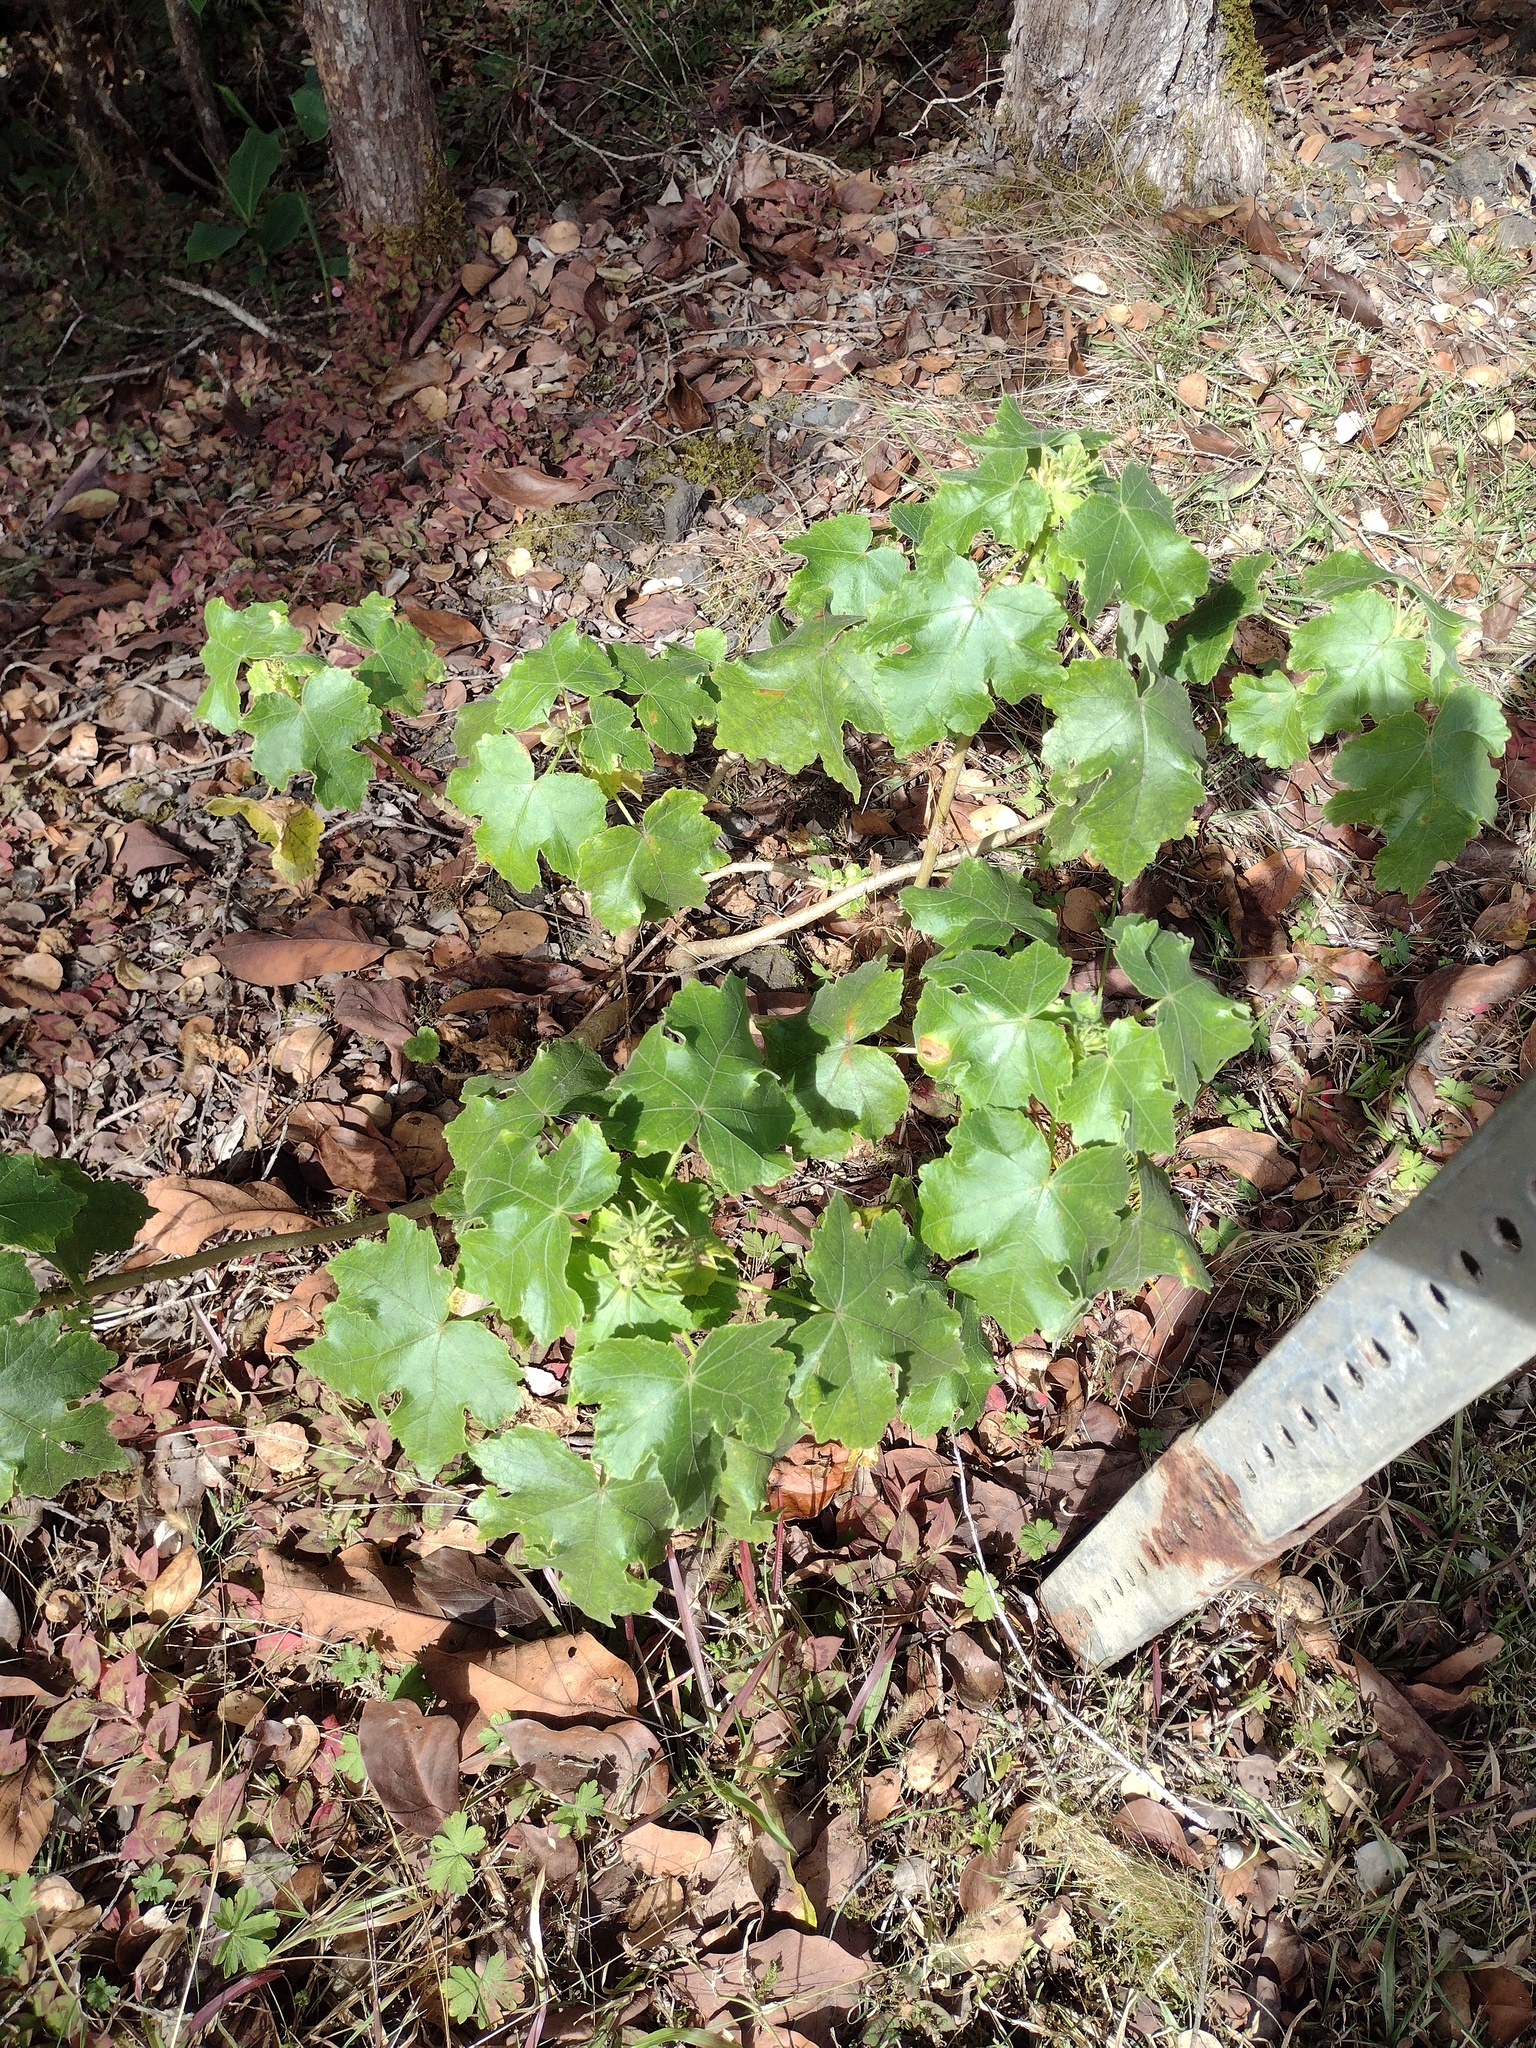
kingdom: Plantae
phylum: Tracheophyta
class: Magnoliopsida
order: Malvales
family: Malvaceae
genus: Hibiscus
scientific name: Hibiscus brackenridgei
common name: Native yellow hibiscus
